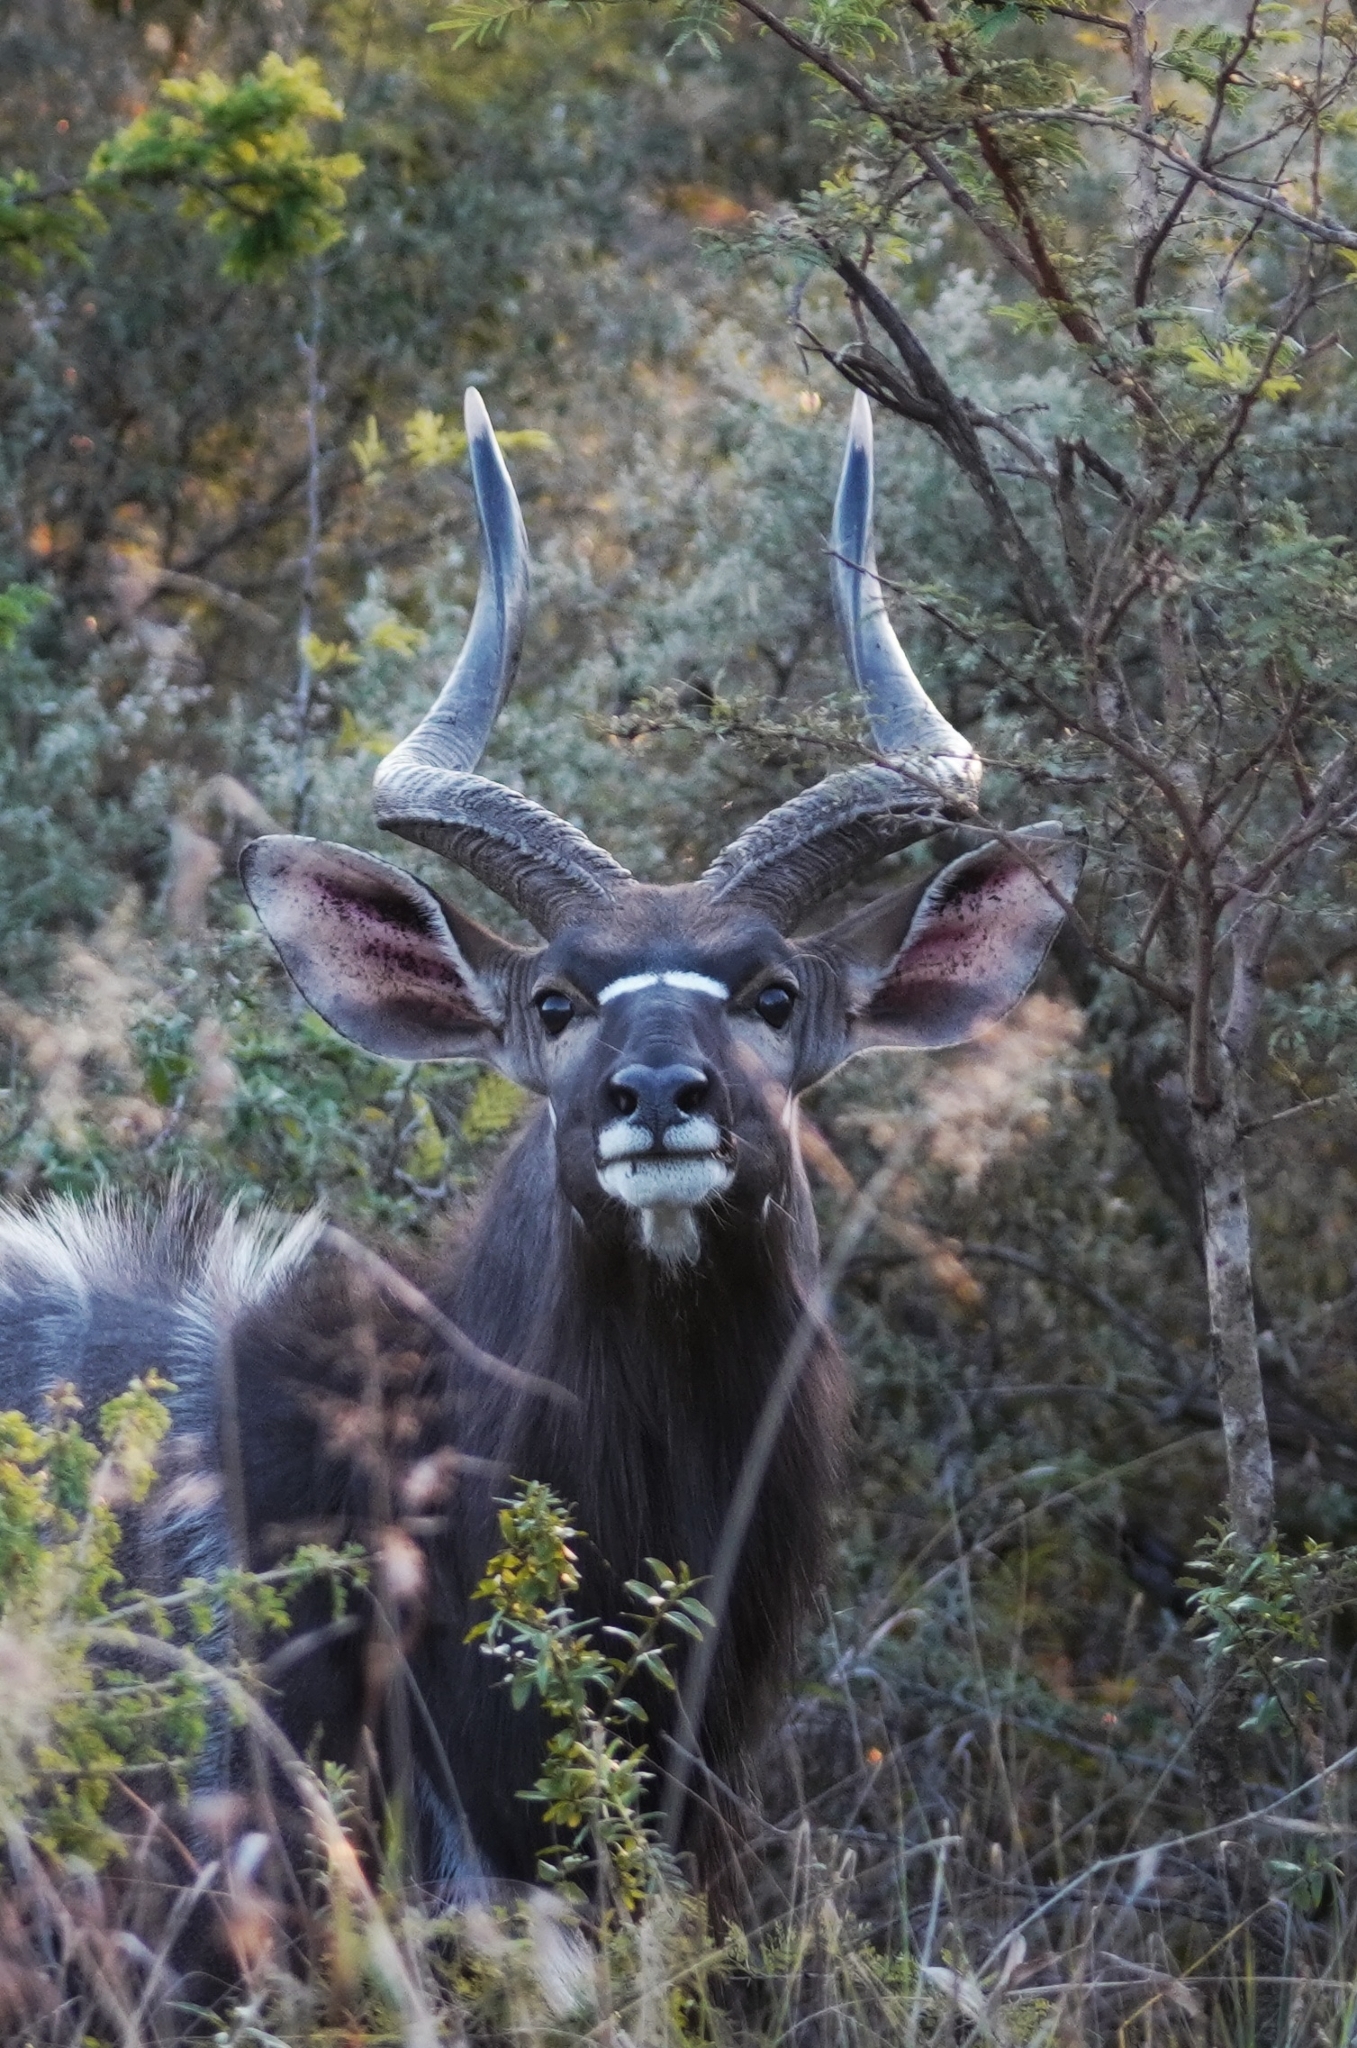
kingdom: Animalia
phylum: Chordata
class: Mammalia
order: Artiodactyla
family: Bovidae
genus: Tragelaphus
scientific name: Tragelaphus angasii
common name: Nyala
